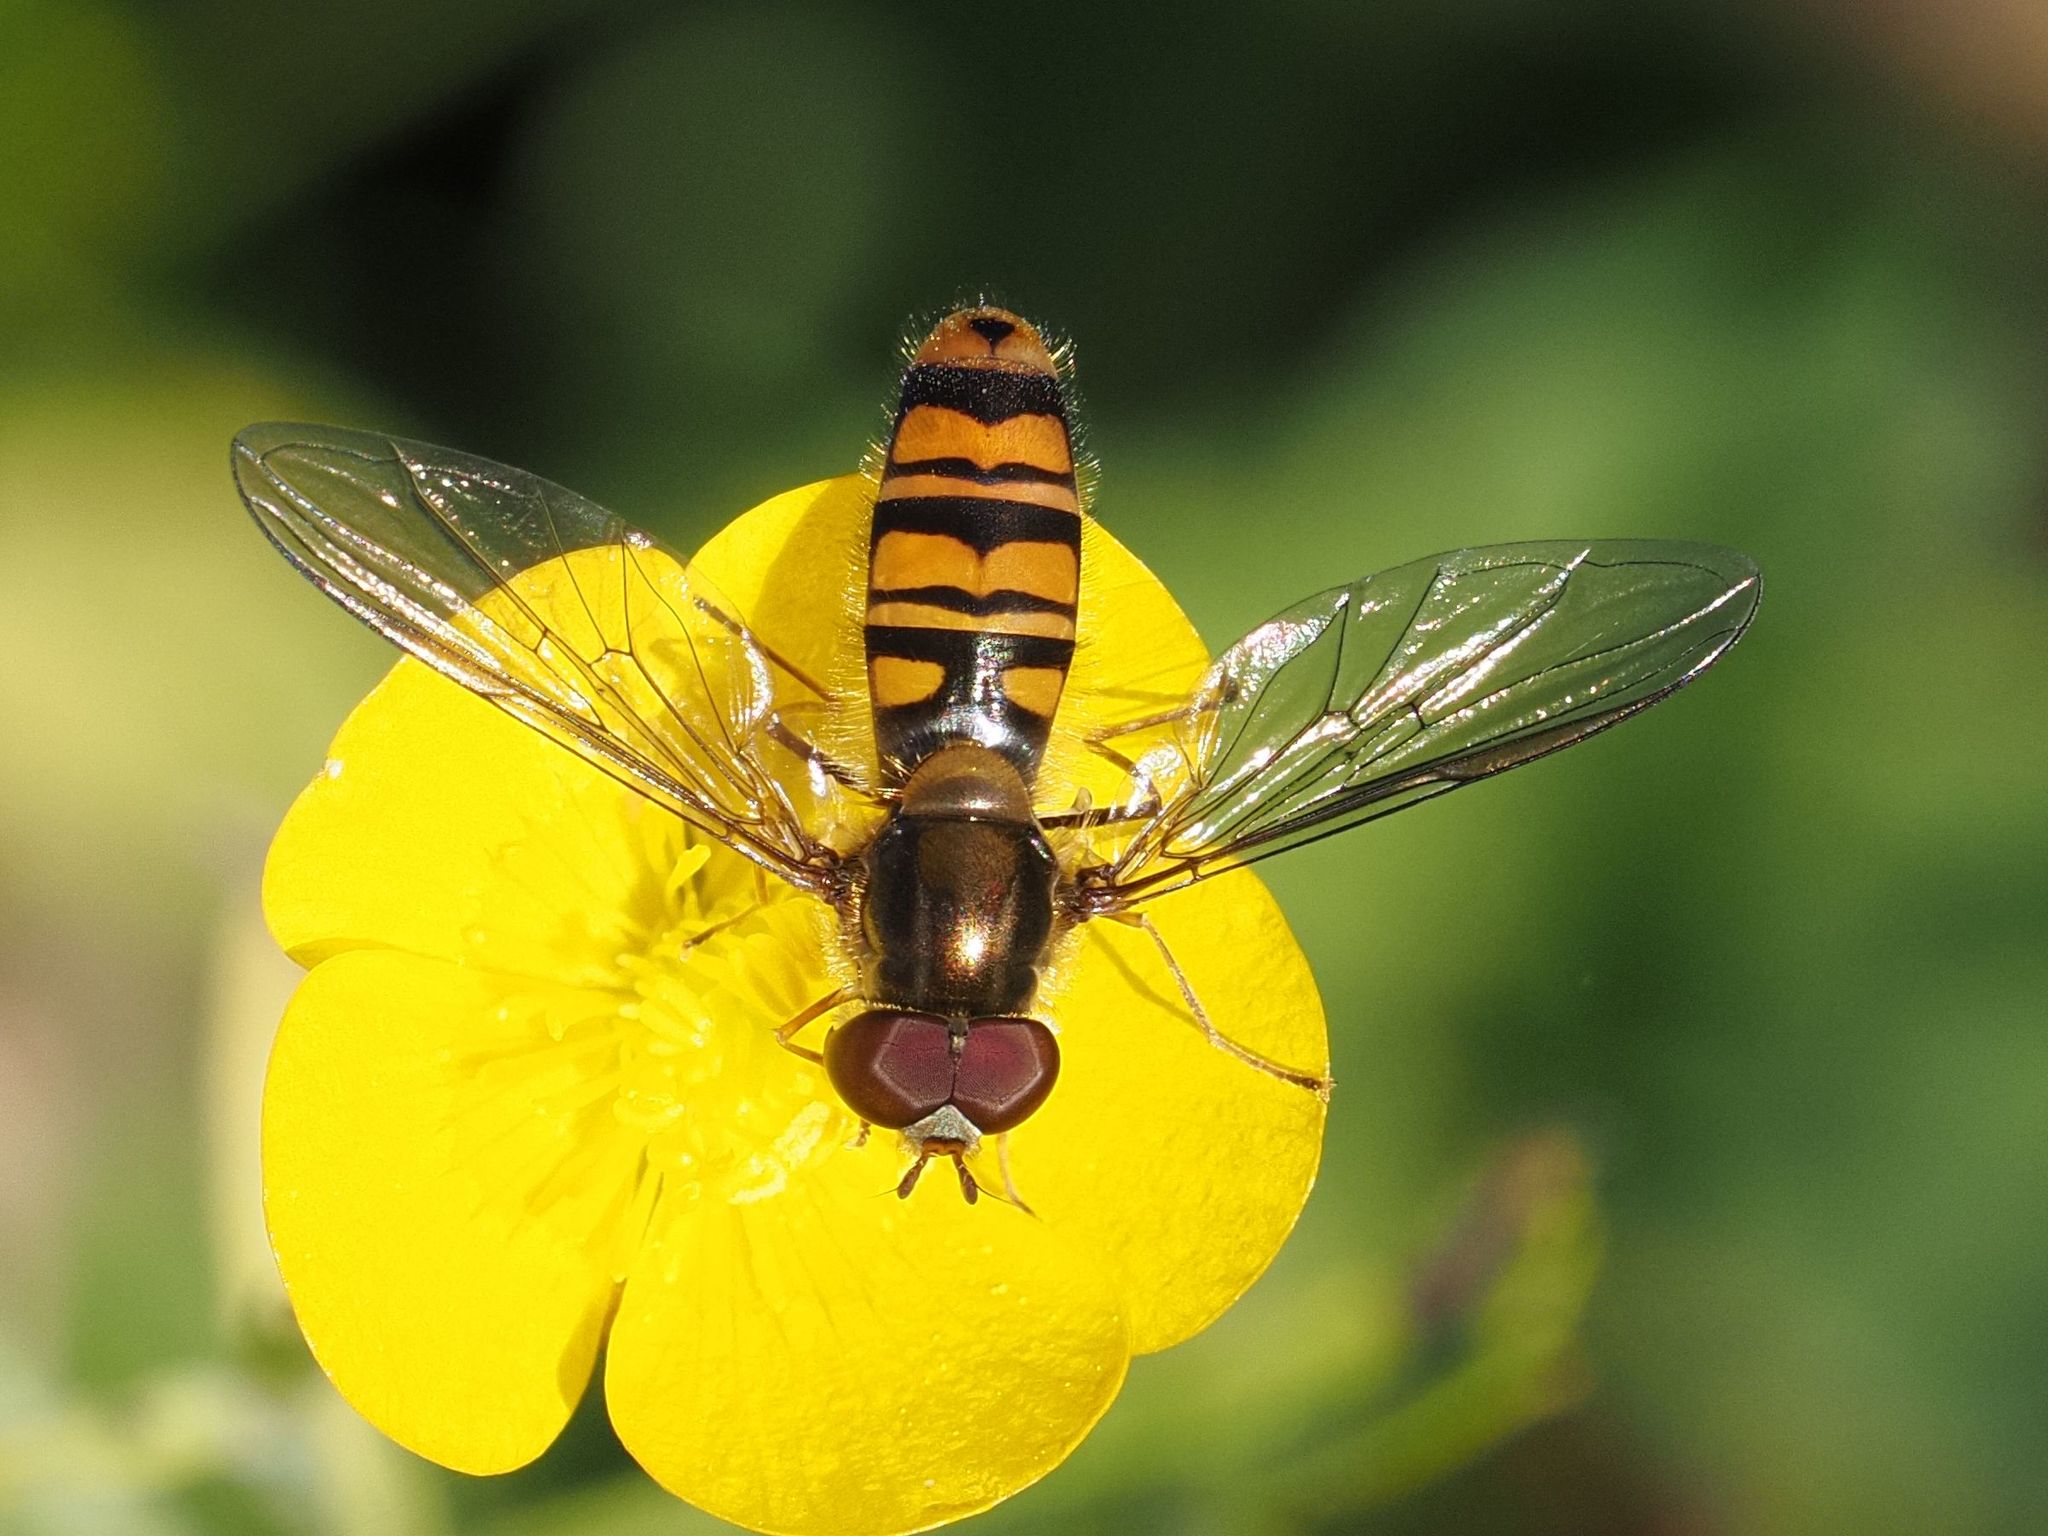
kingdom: Animalia
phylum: Arthropoda
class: Insecta
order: Diptera
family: Syrphidae
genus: Episyrphus
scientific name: Episyrphus balteatus
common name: Marmalade hoverfly
